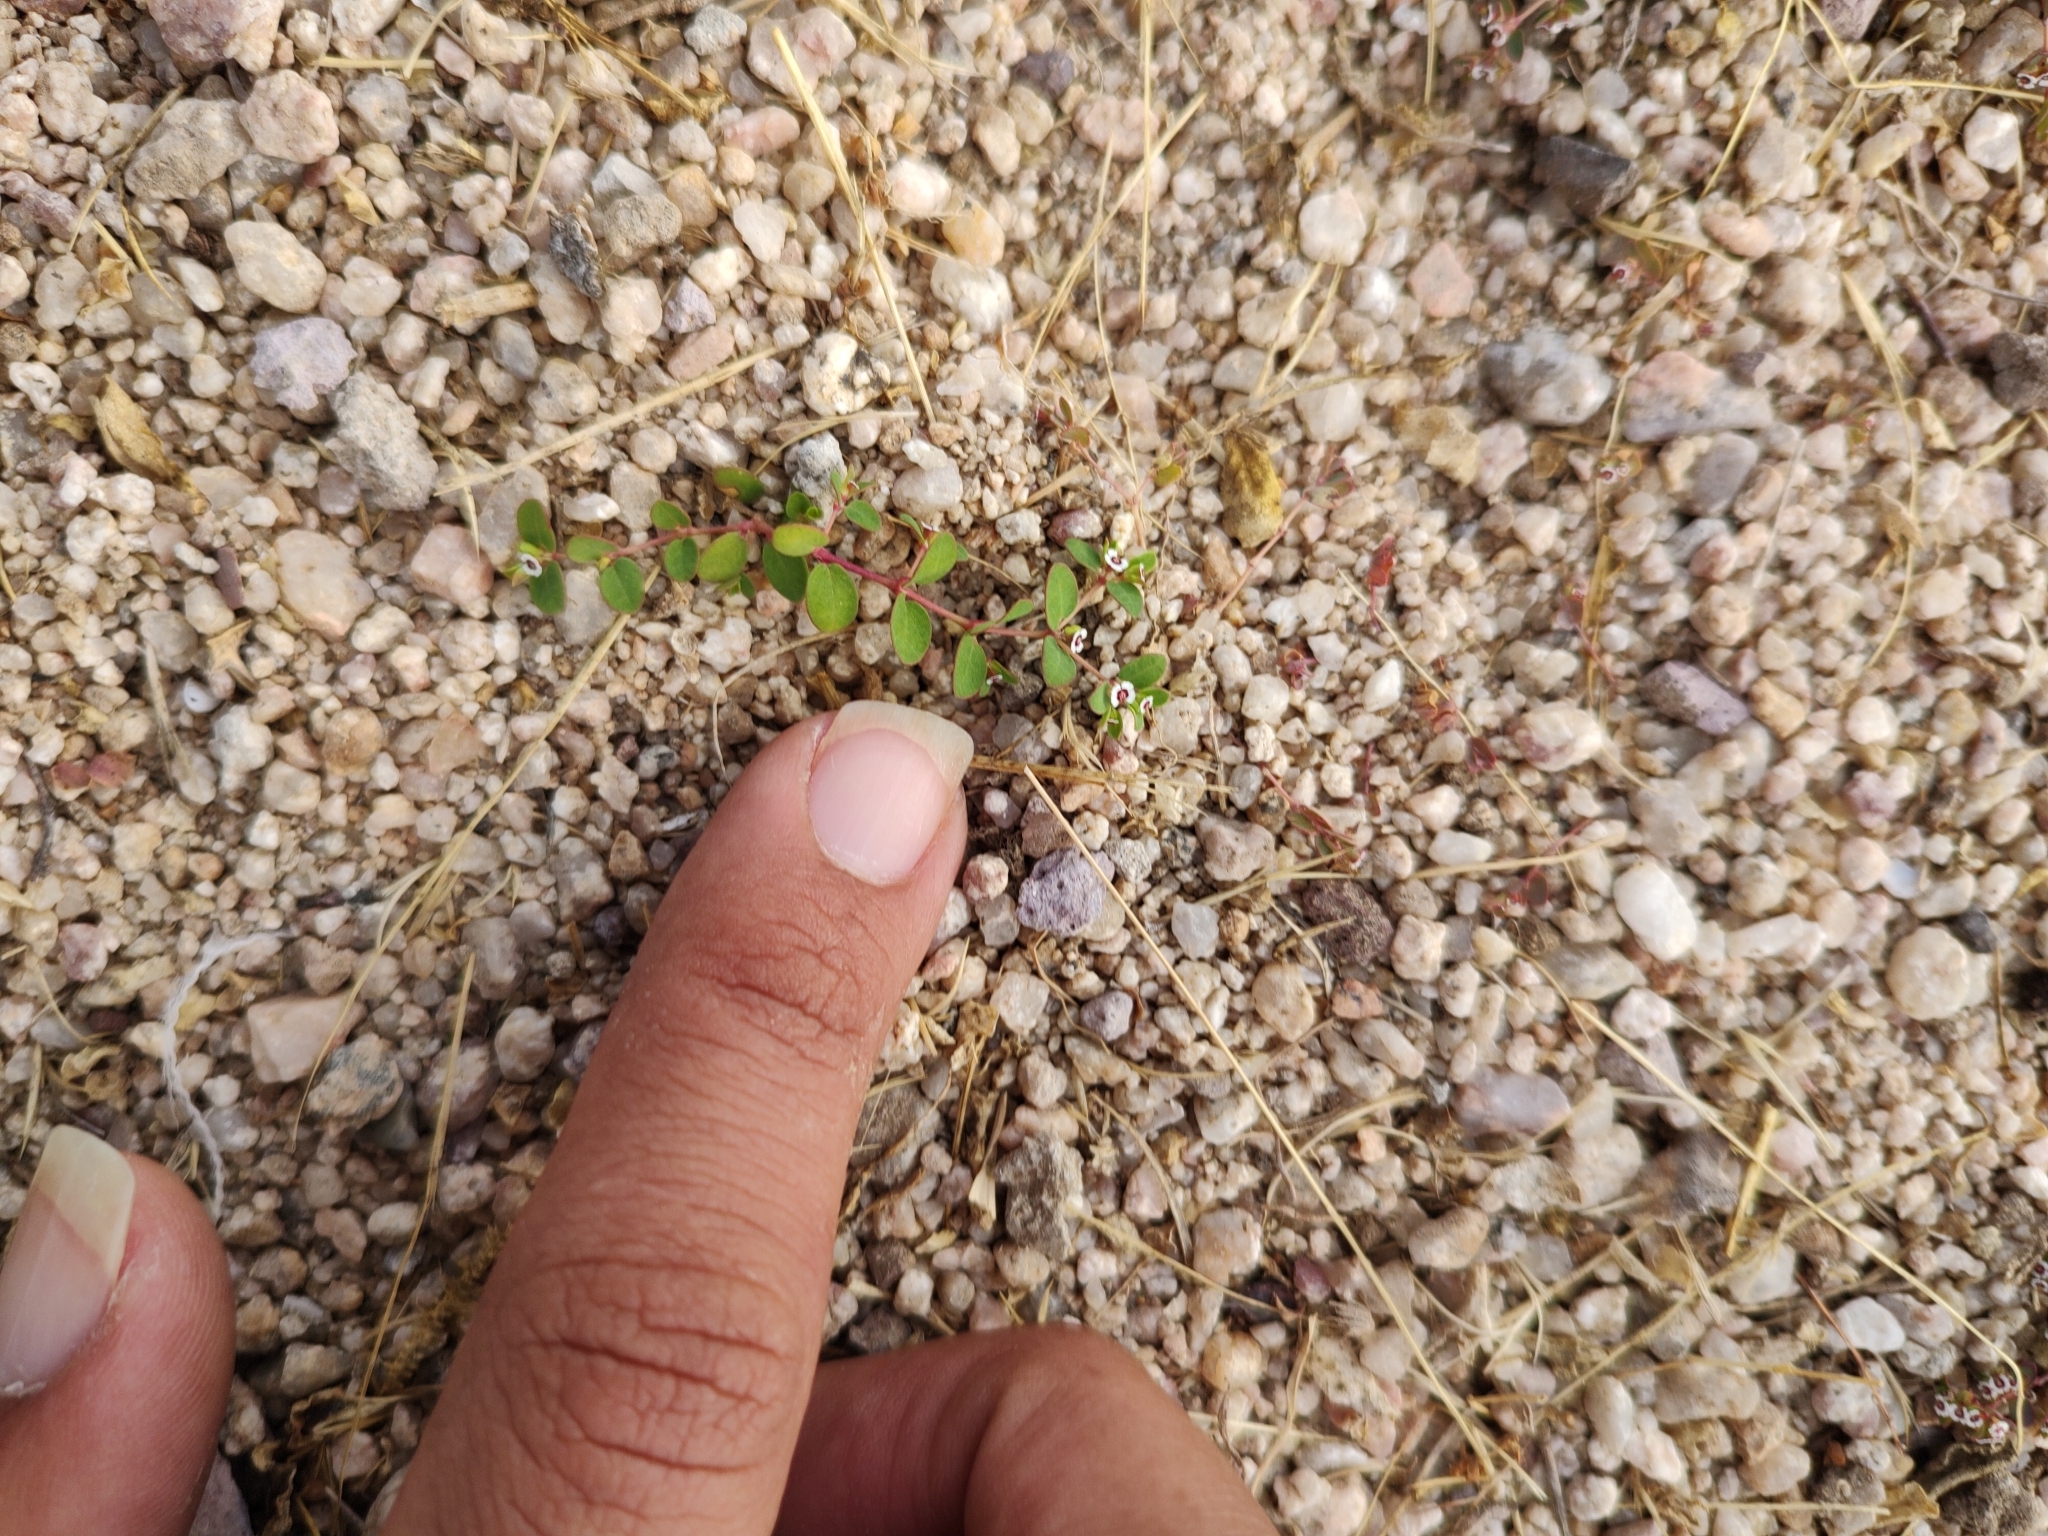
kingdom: Plantae
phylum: Tracheophyta
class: Magnoliopsida
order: Malpighiales
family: Euphorbiaceae
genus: Euphorbia
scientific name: Euphorbia polycarpa
